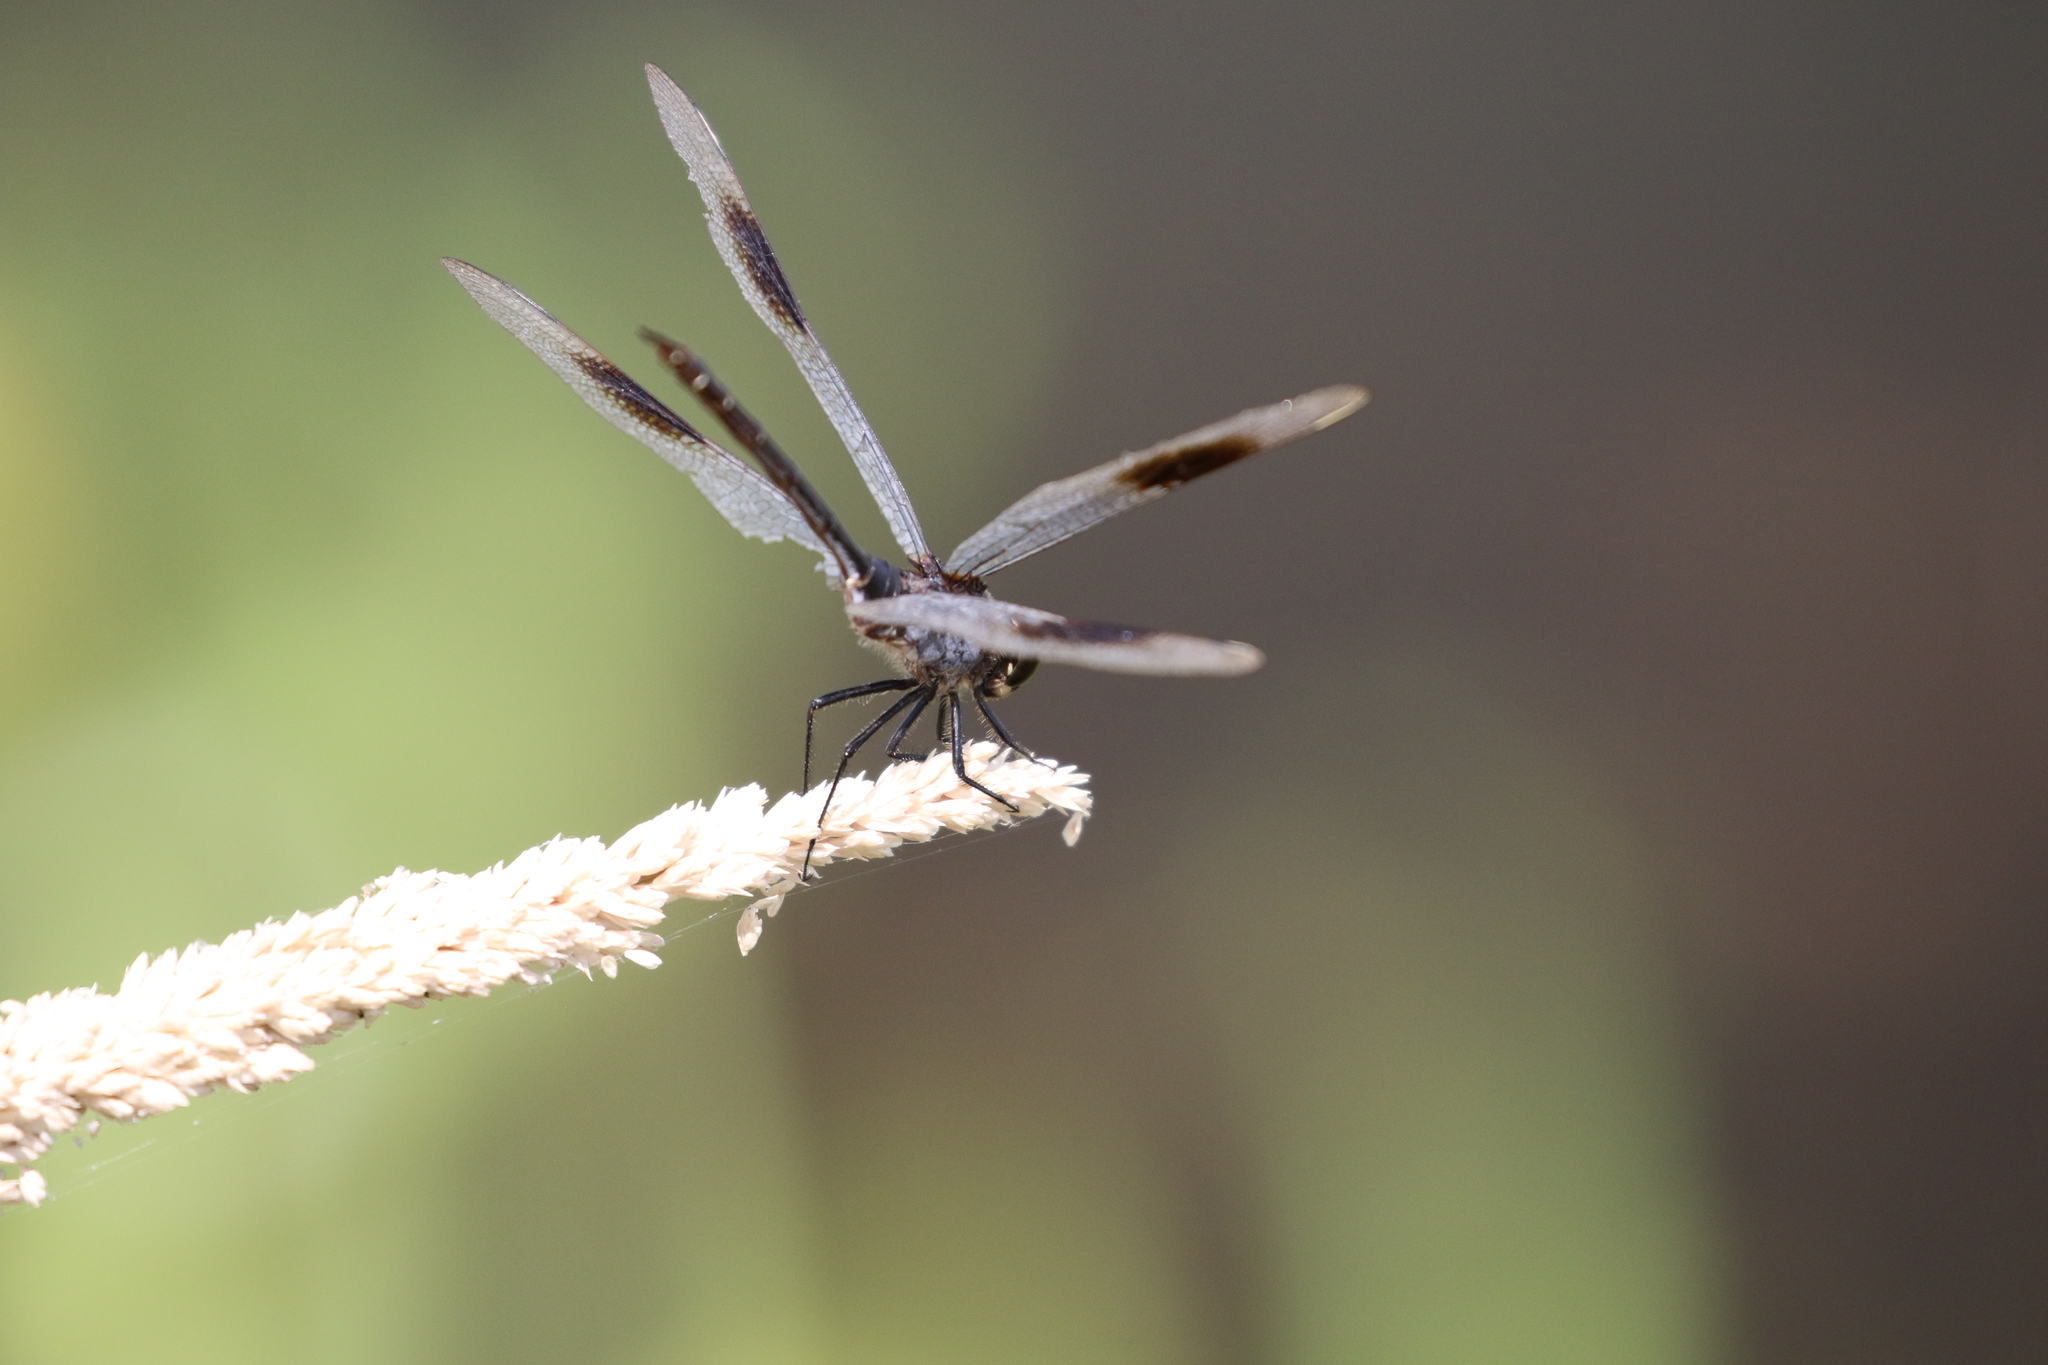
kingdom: Animalia
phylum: Arthropoda
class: Insecta
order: Odonata
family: Libellulidae
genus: Brachymesia
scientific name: Brachymesia gravida
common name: Four-spotted pennant
